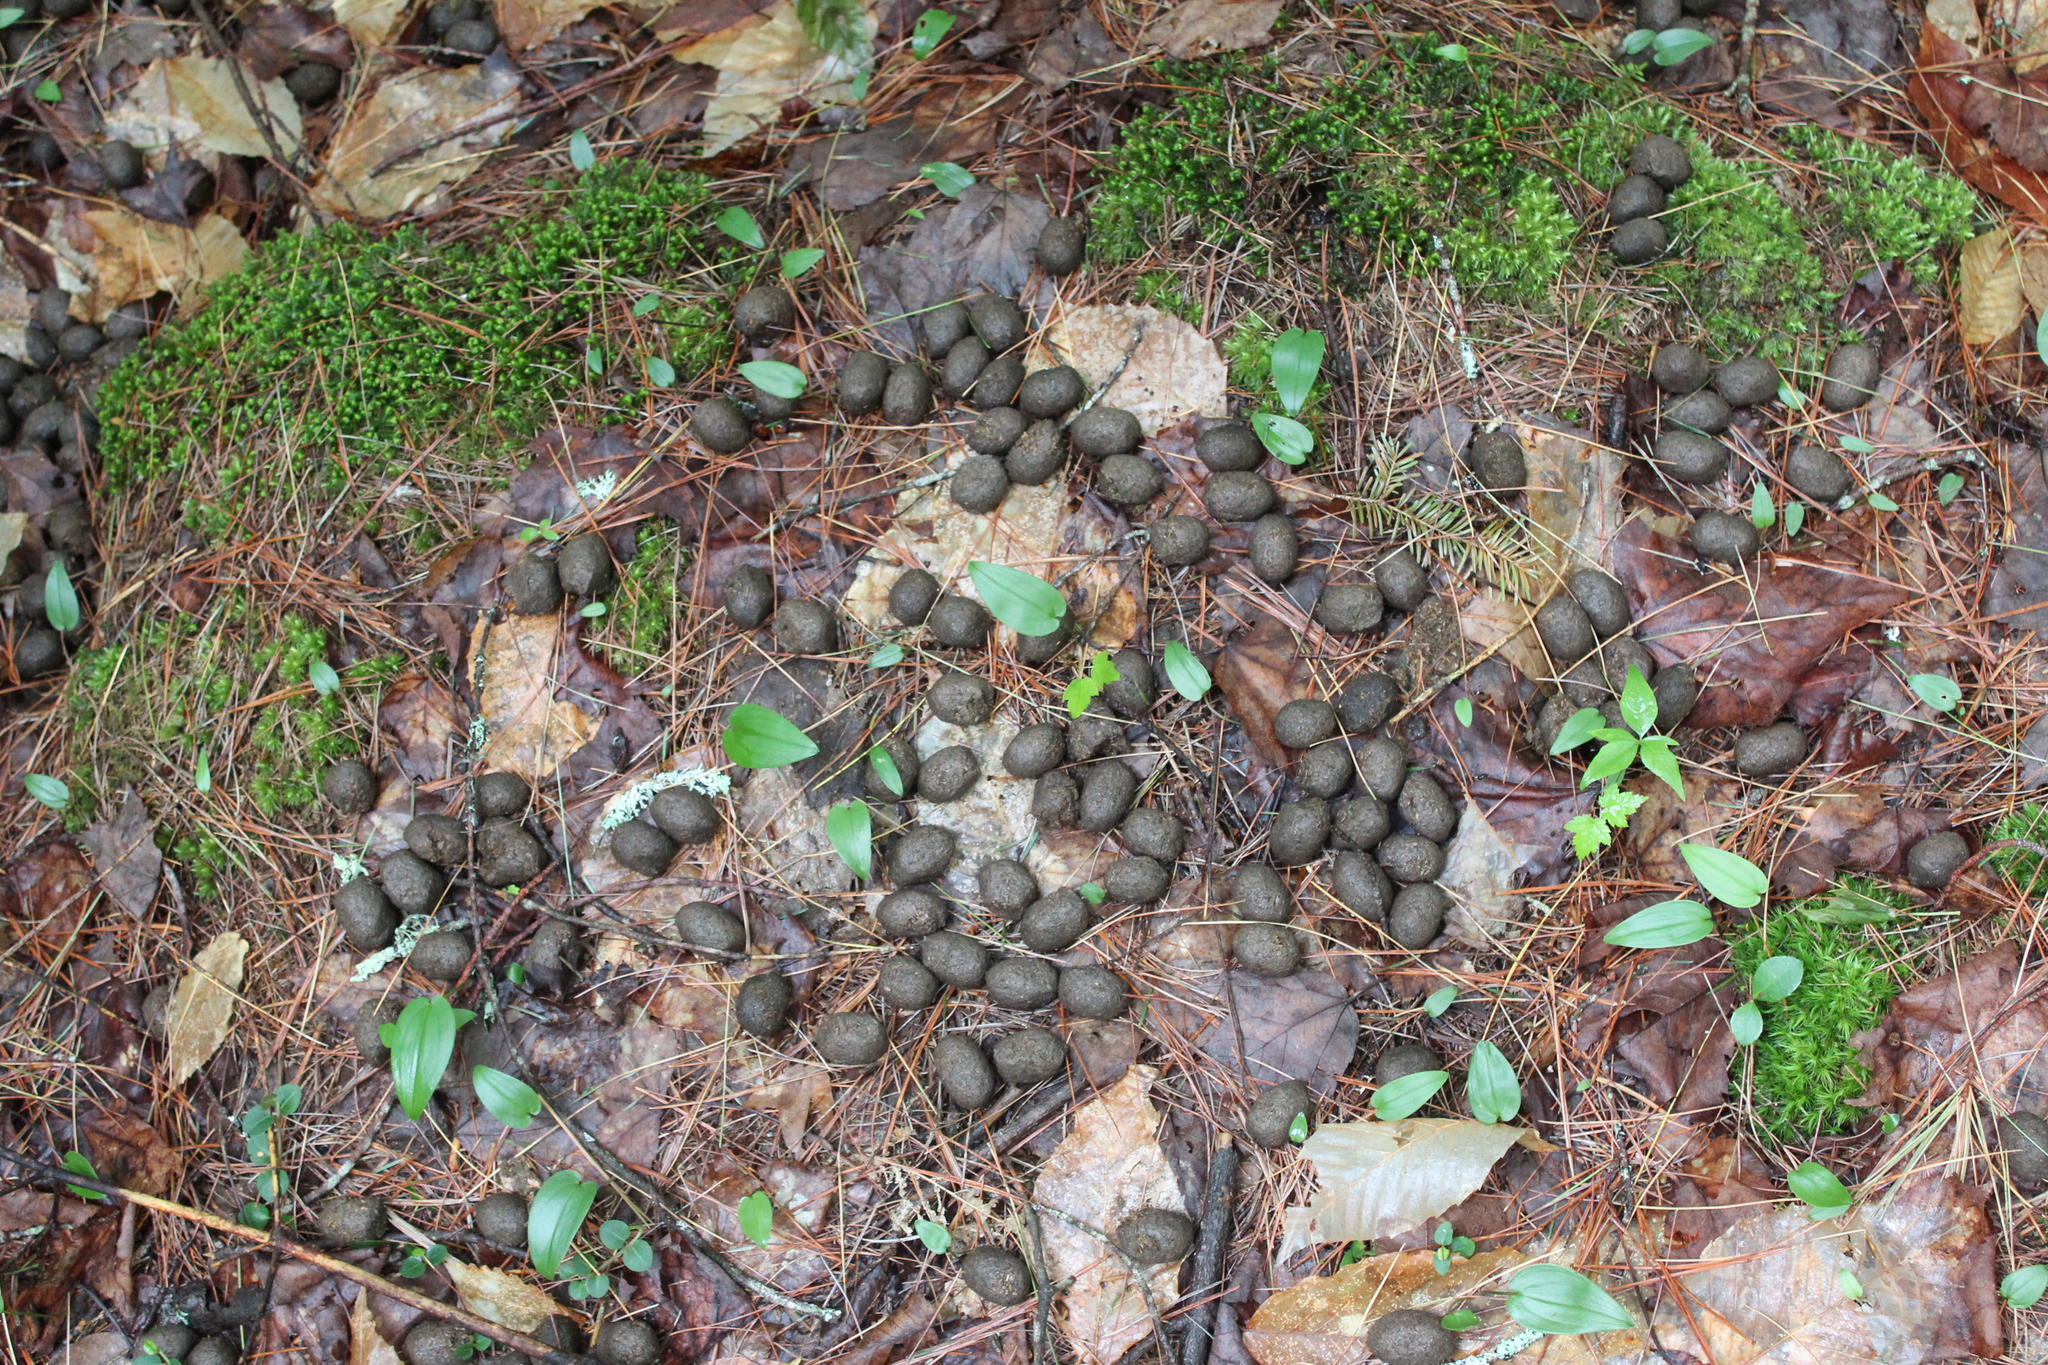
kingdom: Animalia
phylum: Chordata
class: Mammalia
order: Artiodactyla
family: Cervidae
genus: Alces
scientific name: Alces alces
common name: Moose
